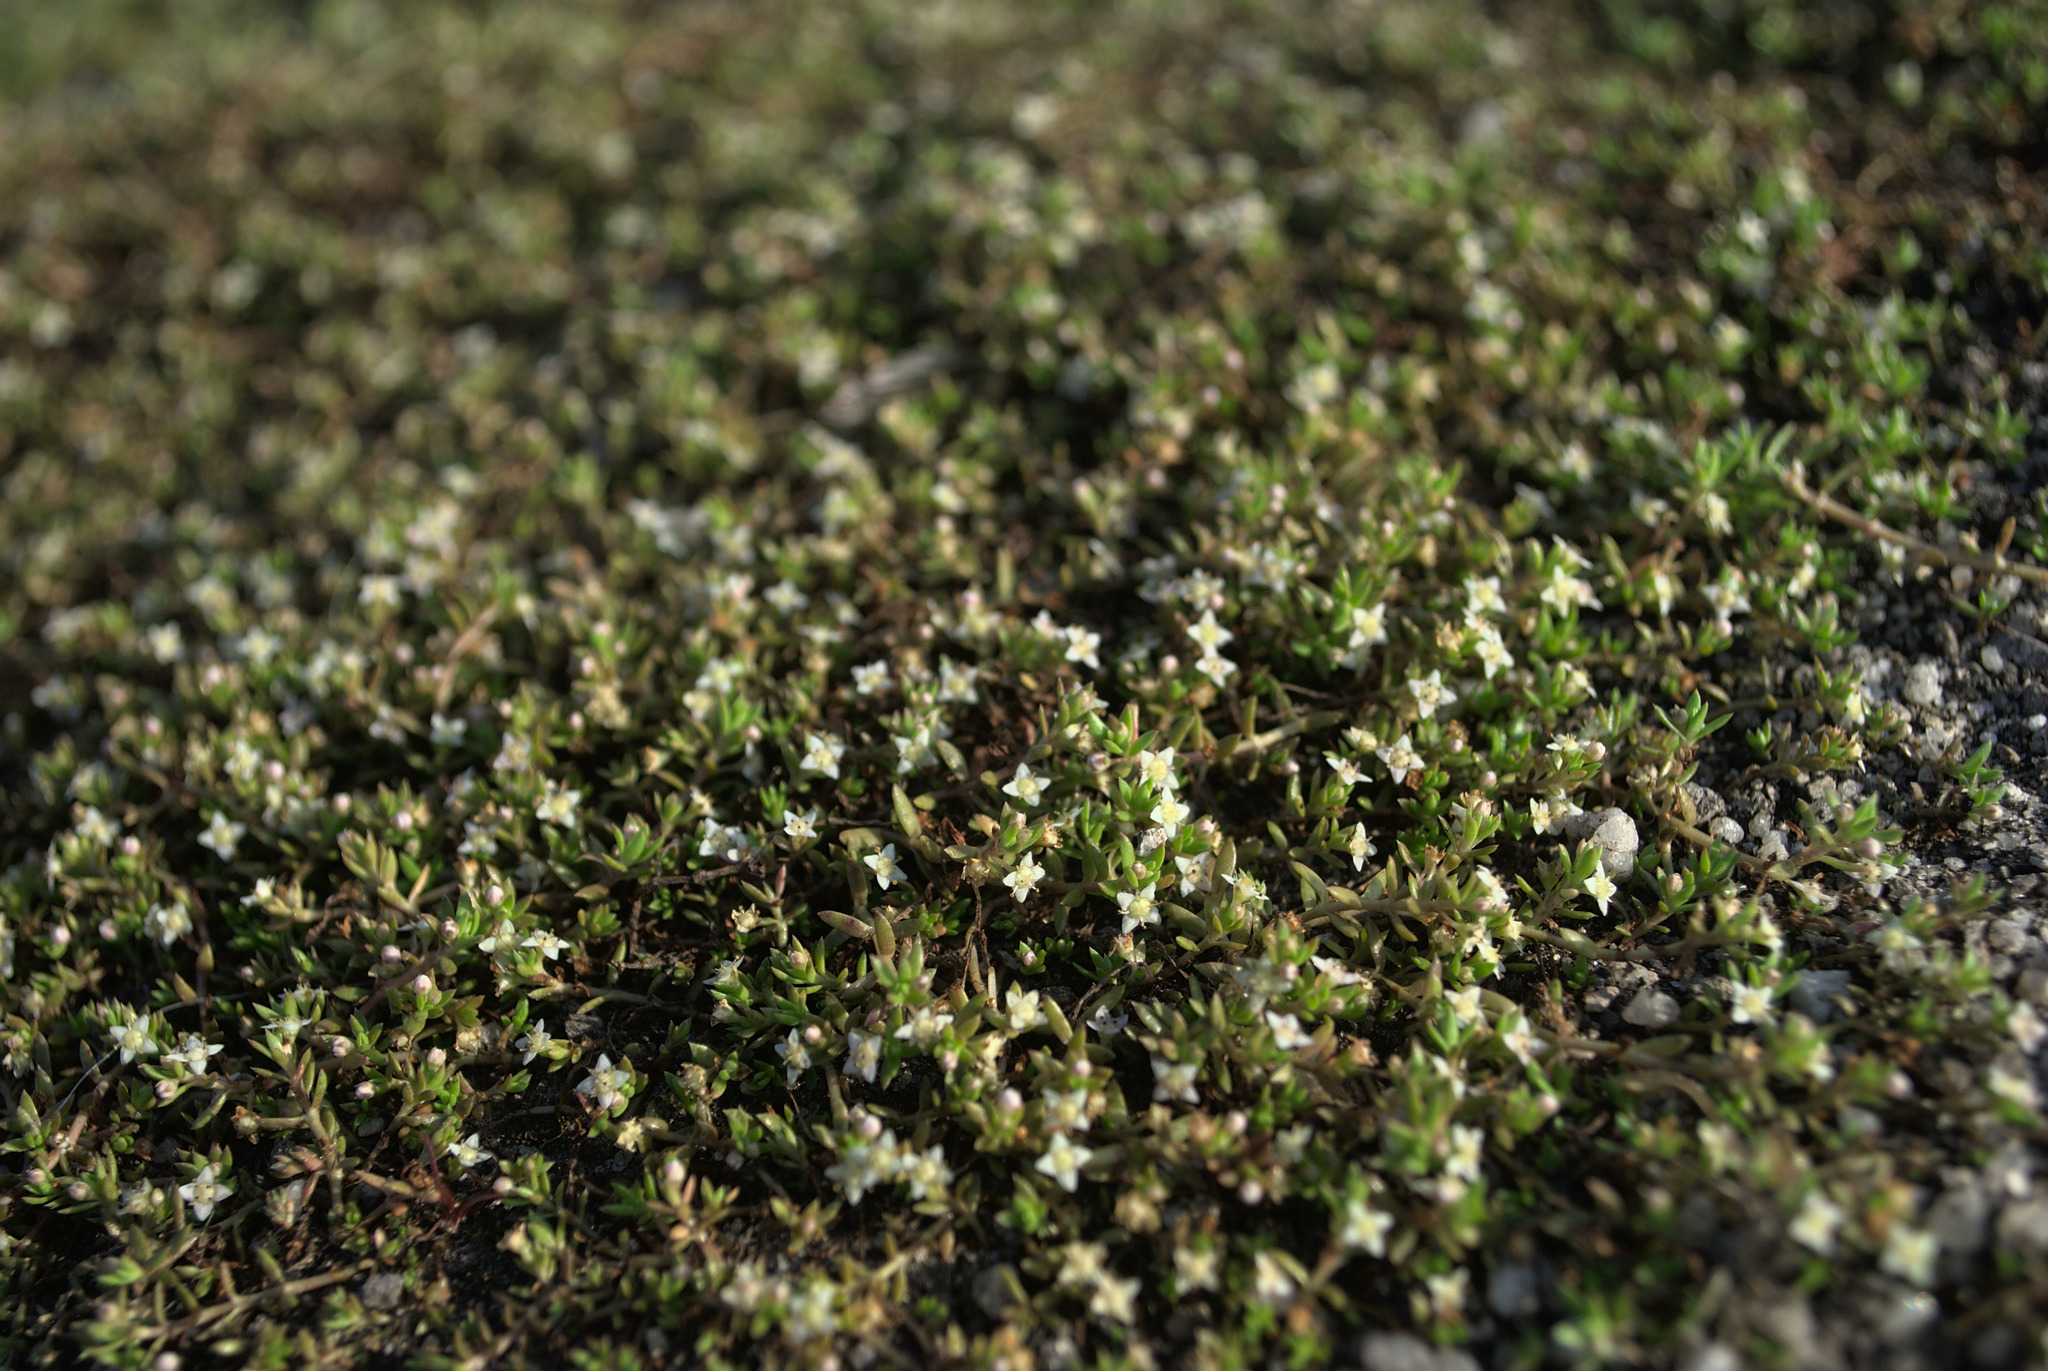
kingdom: Plantae
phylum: Tracheophyta
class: Magnoliopsida
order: Saxifragales
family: Crassulaceae
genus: Crassula
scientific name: Crassula helmsii
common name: New zealand pigmyweed
